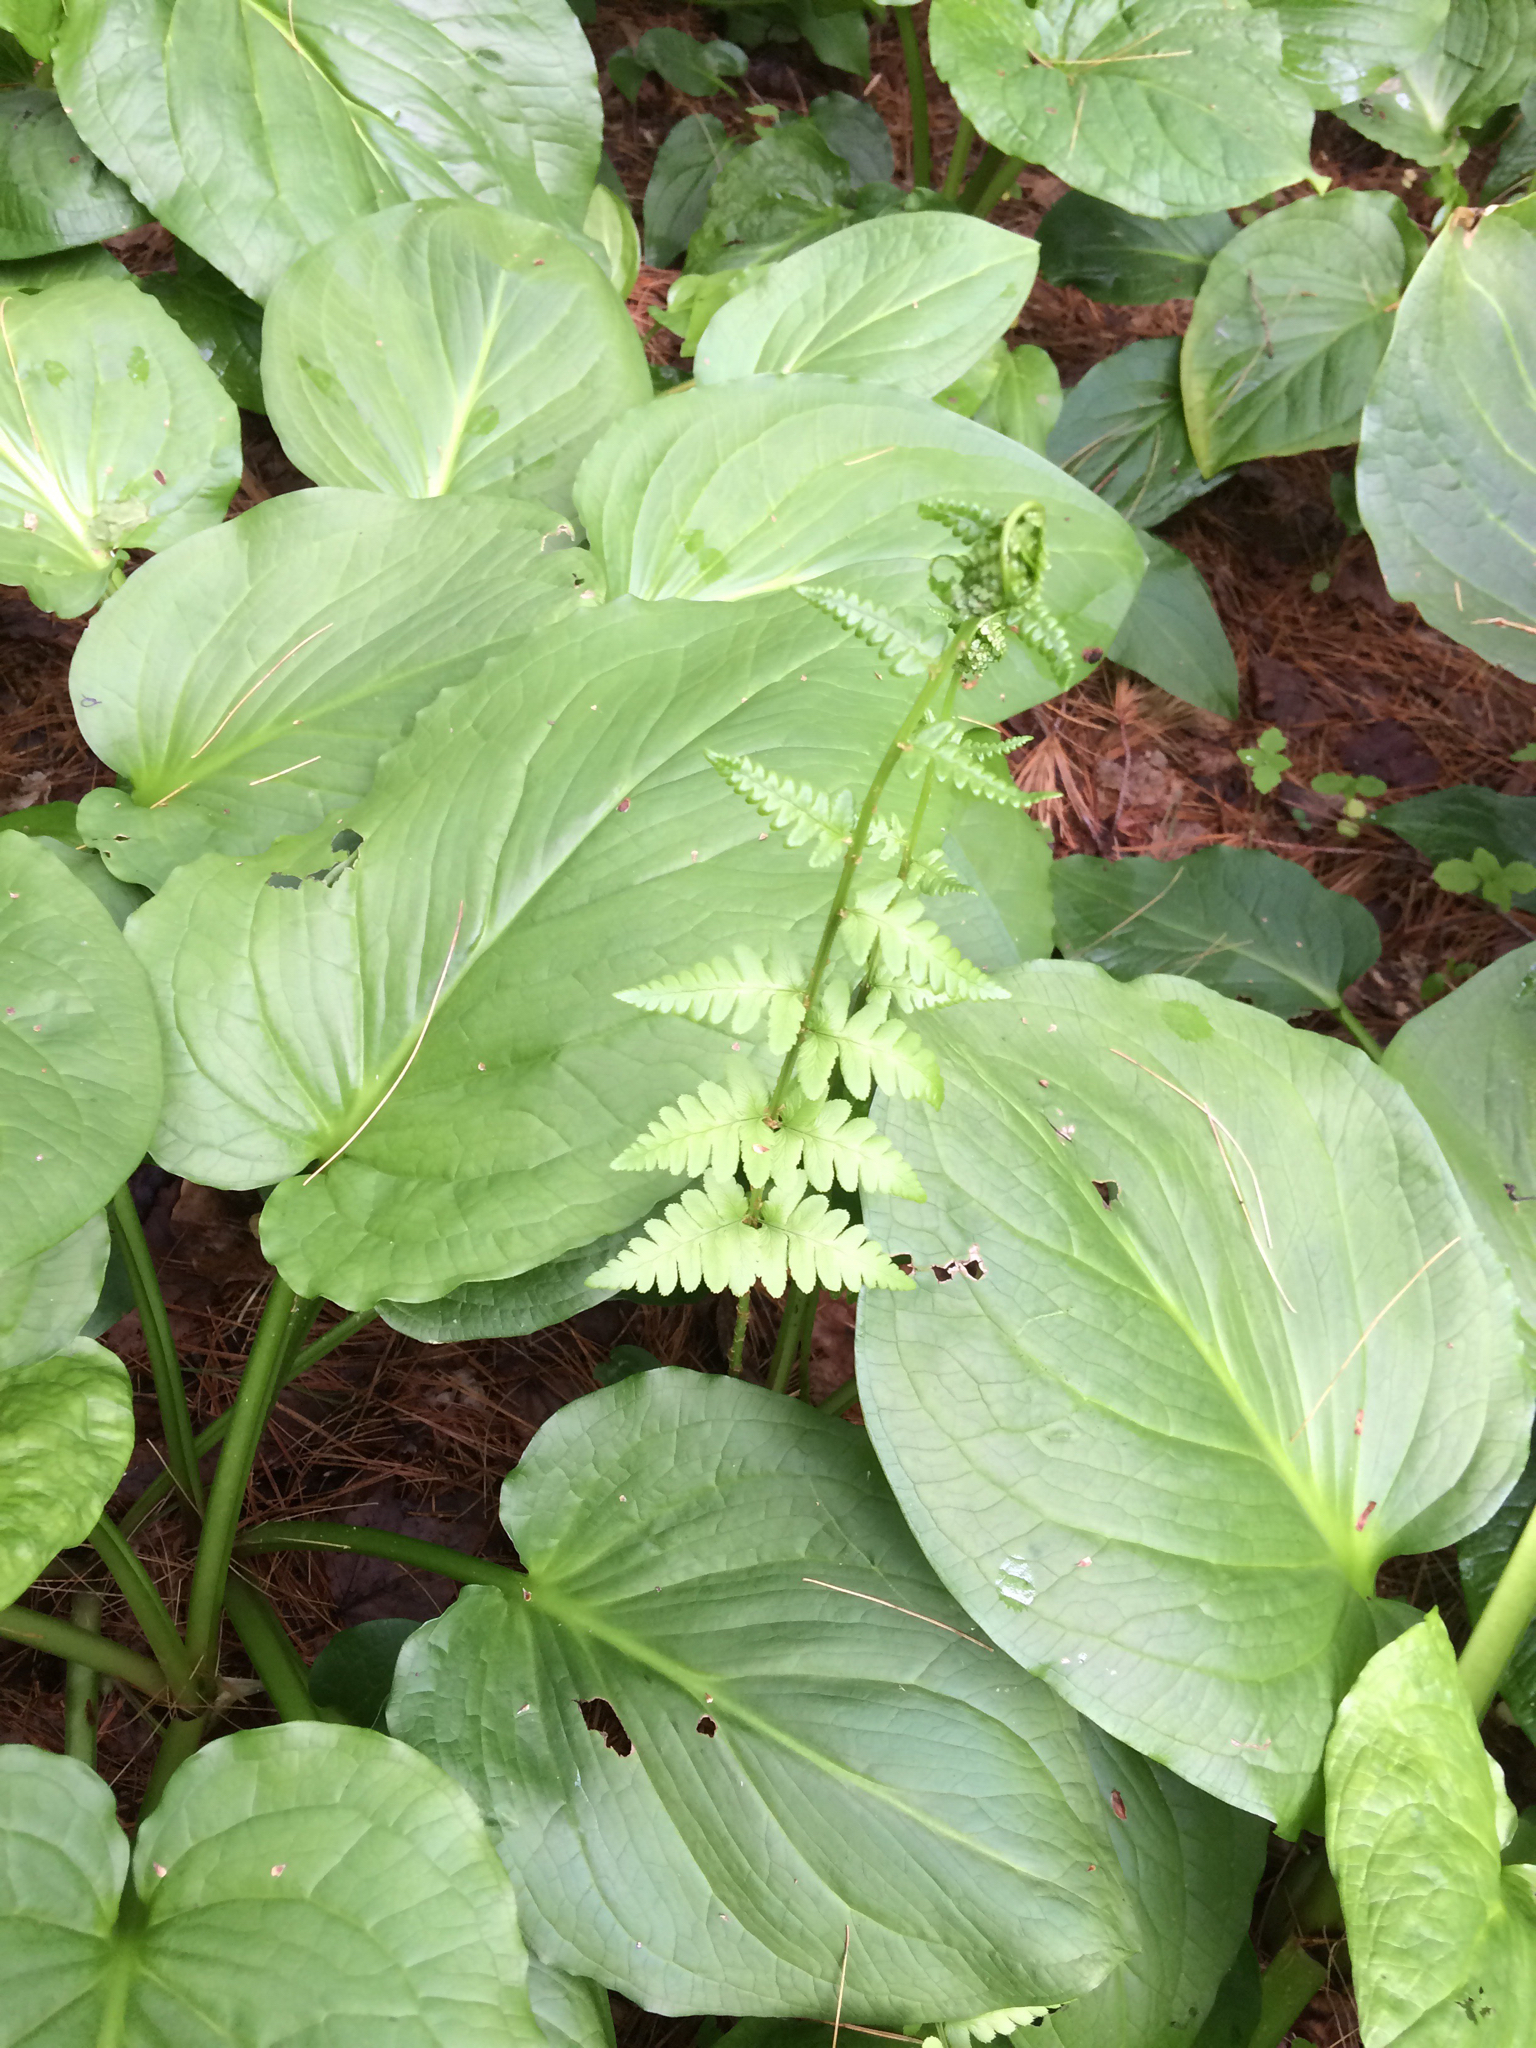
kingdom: Plantae
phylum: Tracheophyta
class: Polypodiopsida
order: Polypodiales
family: Dryopteridaceae
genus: Dryopteris
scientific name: Dryopteris cristata
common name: Crested wood fern
